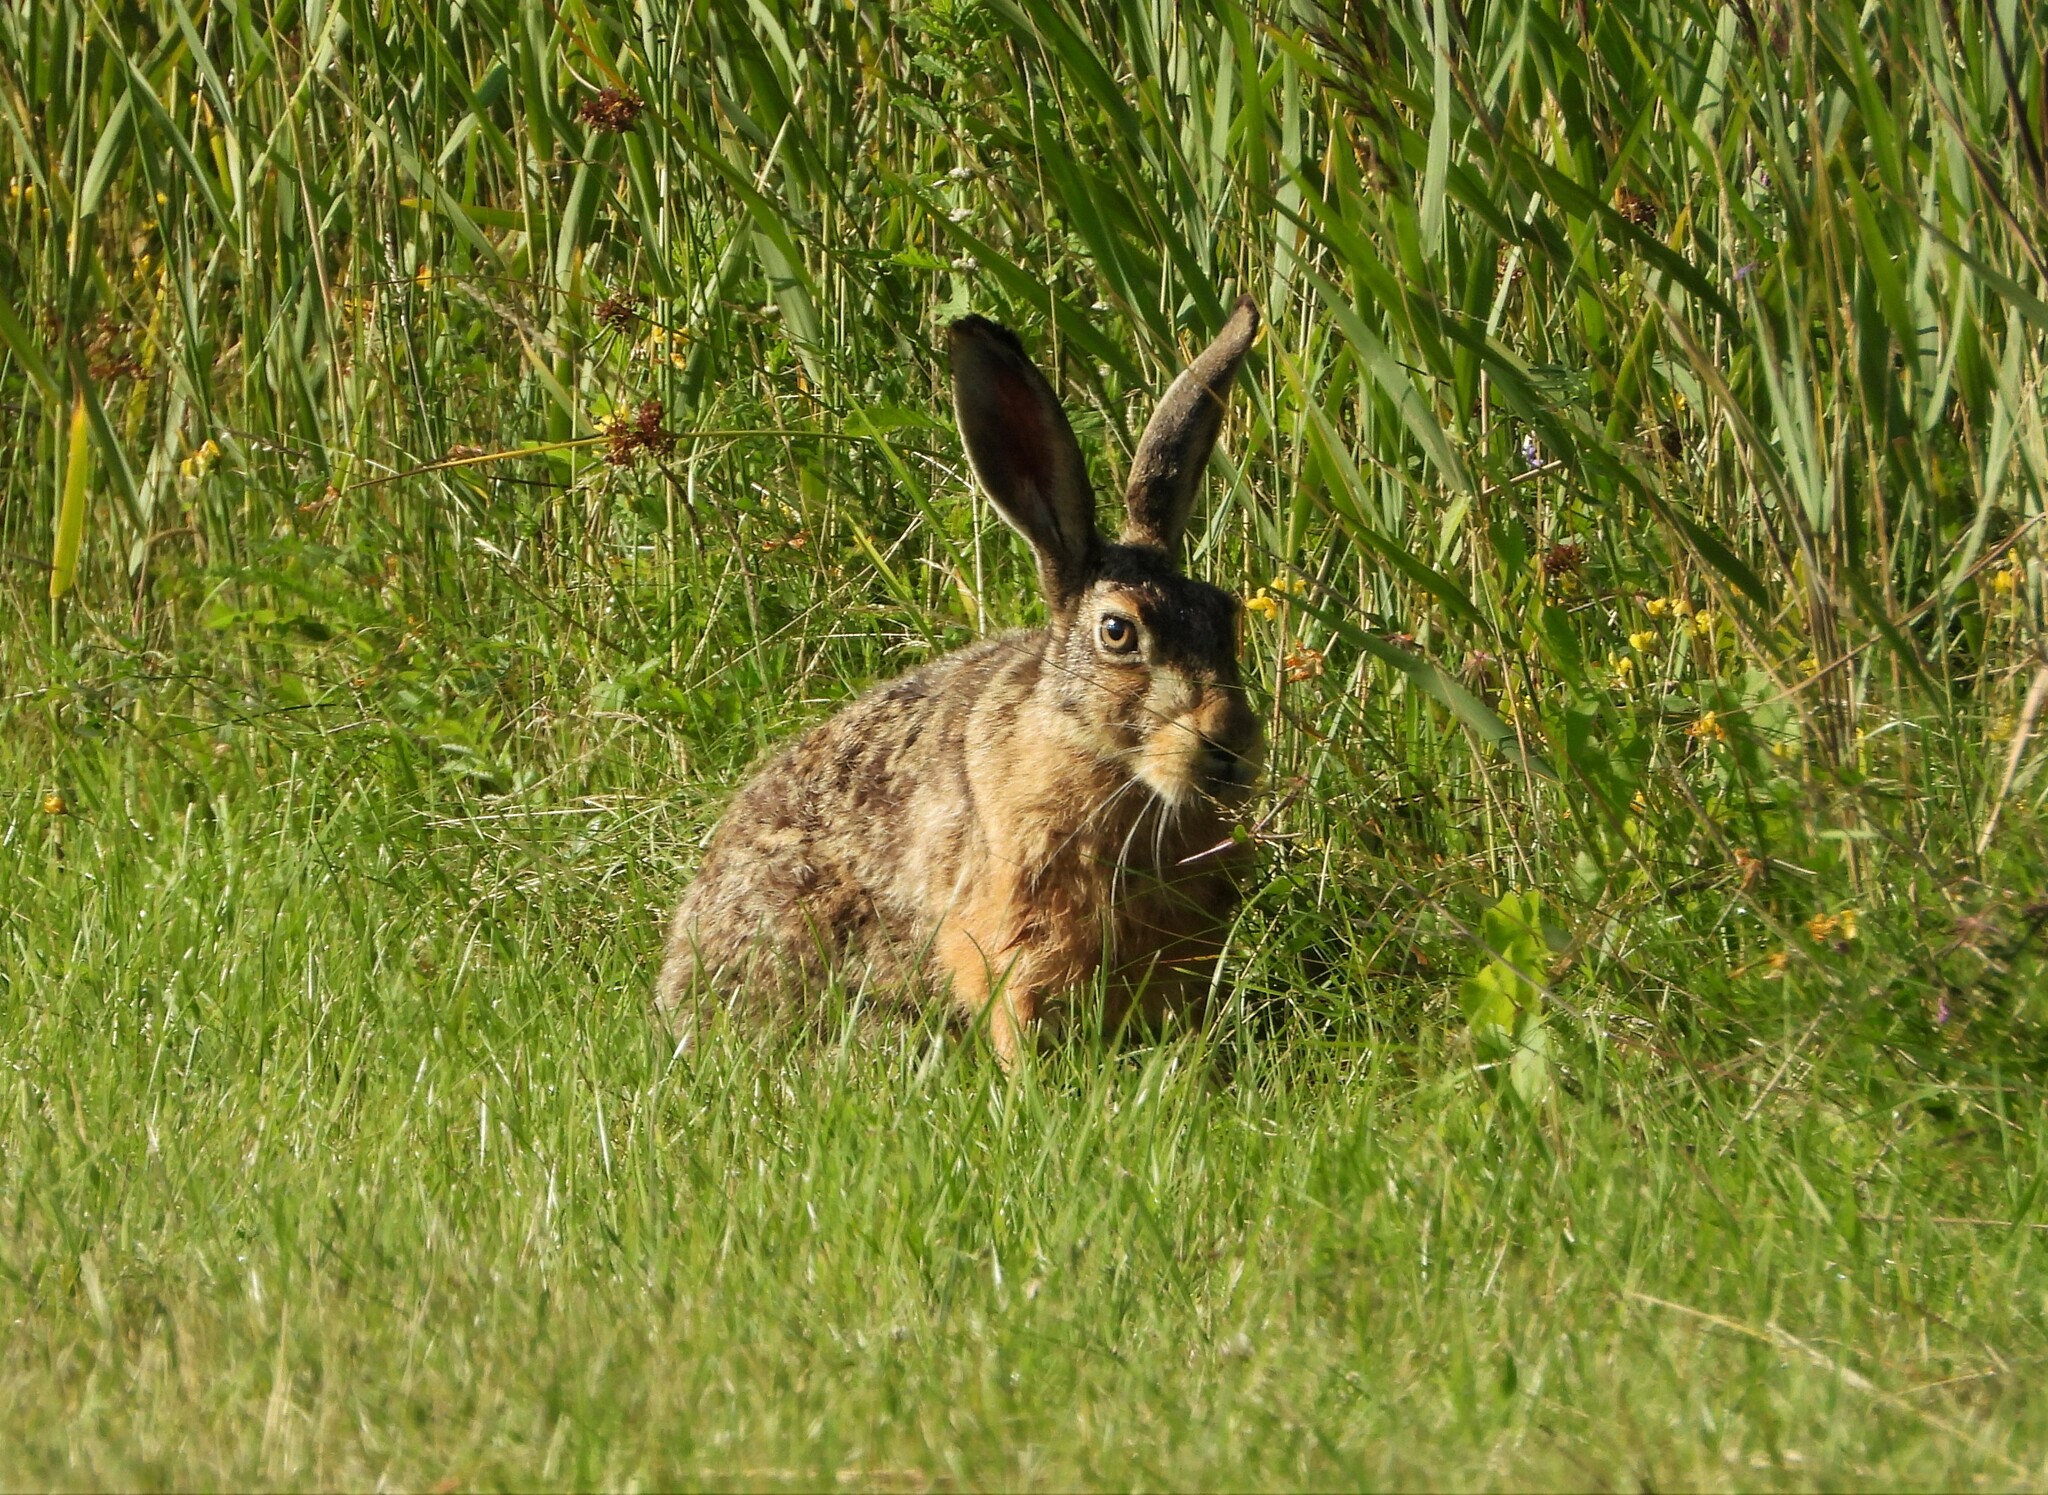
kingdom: Animalia
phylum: Chordata
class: Mammalia
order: Lagomorpha
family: Leporidae
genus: Lepus
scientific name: Lepus europaeus
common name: European hare
